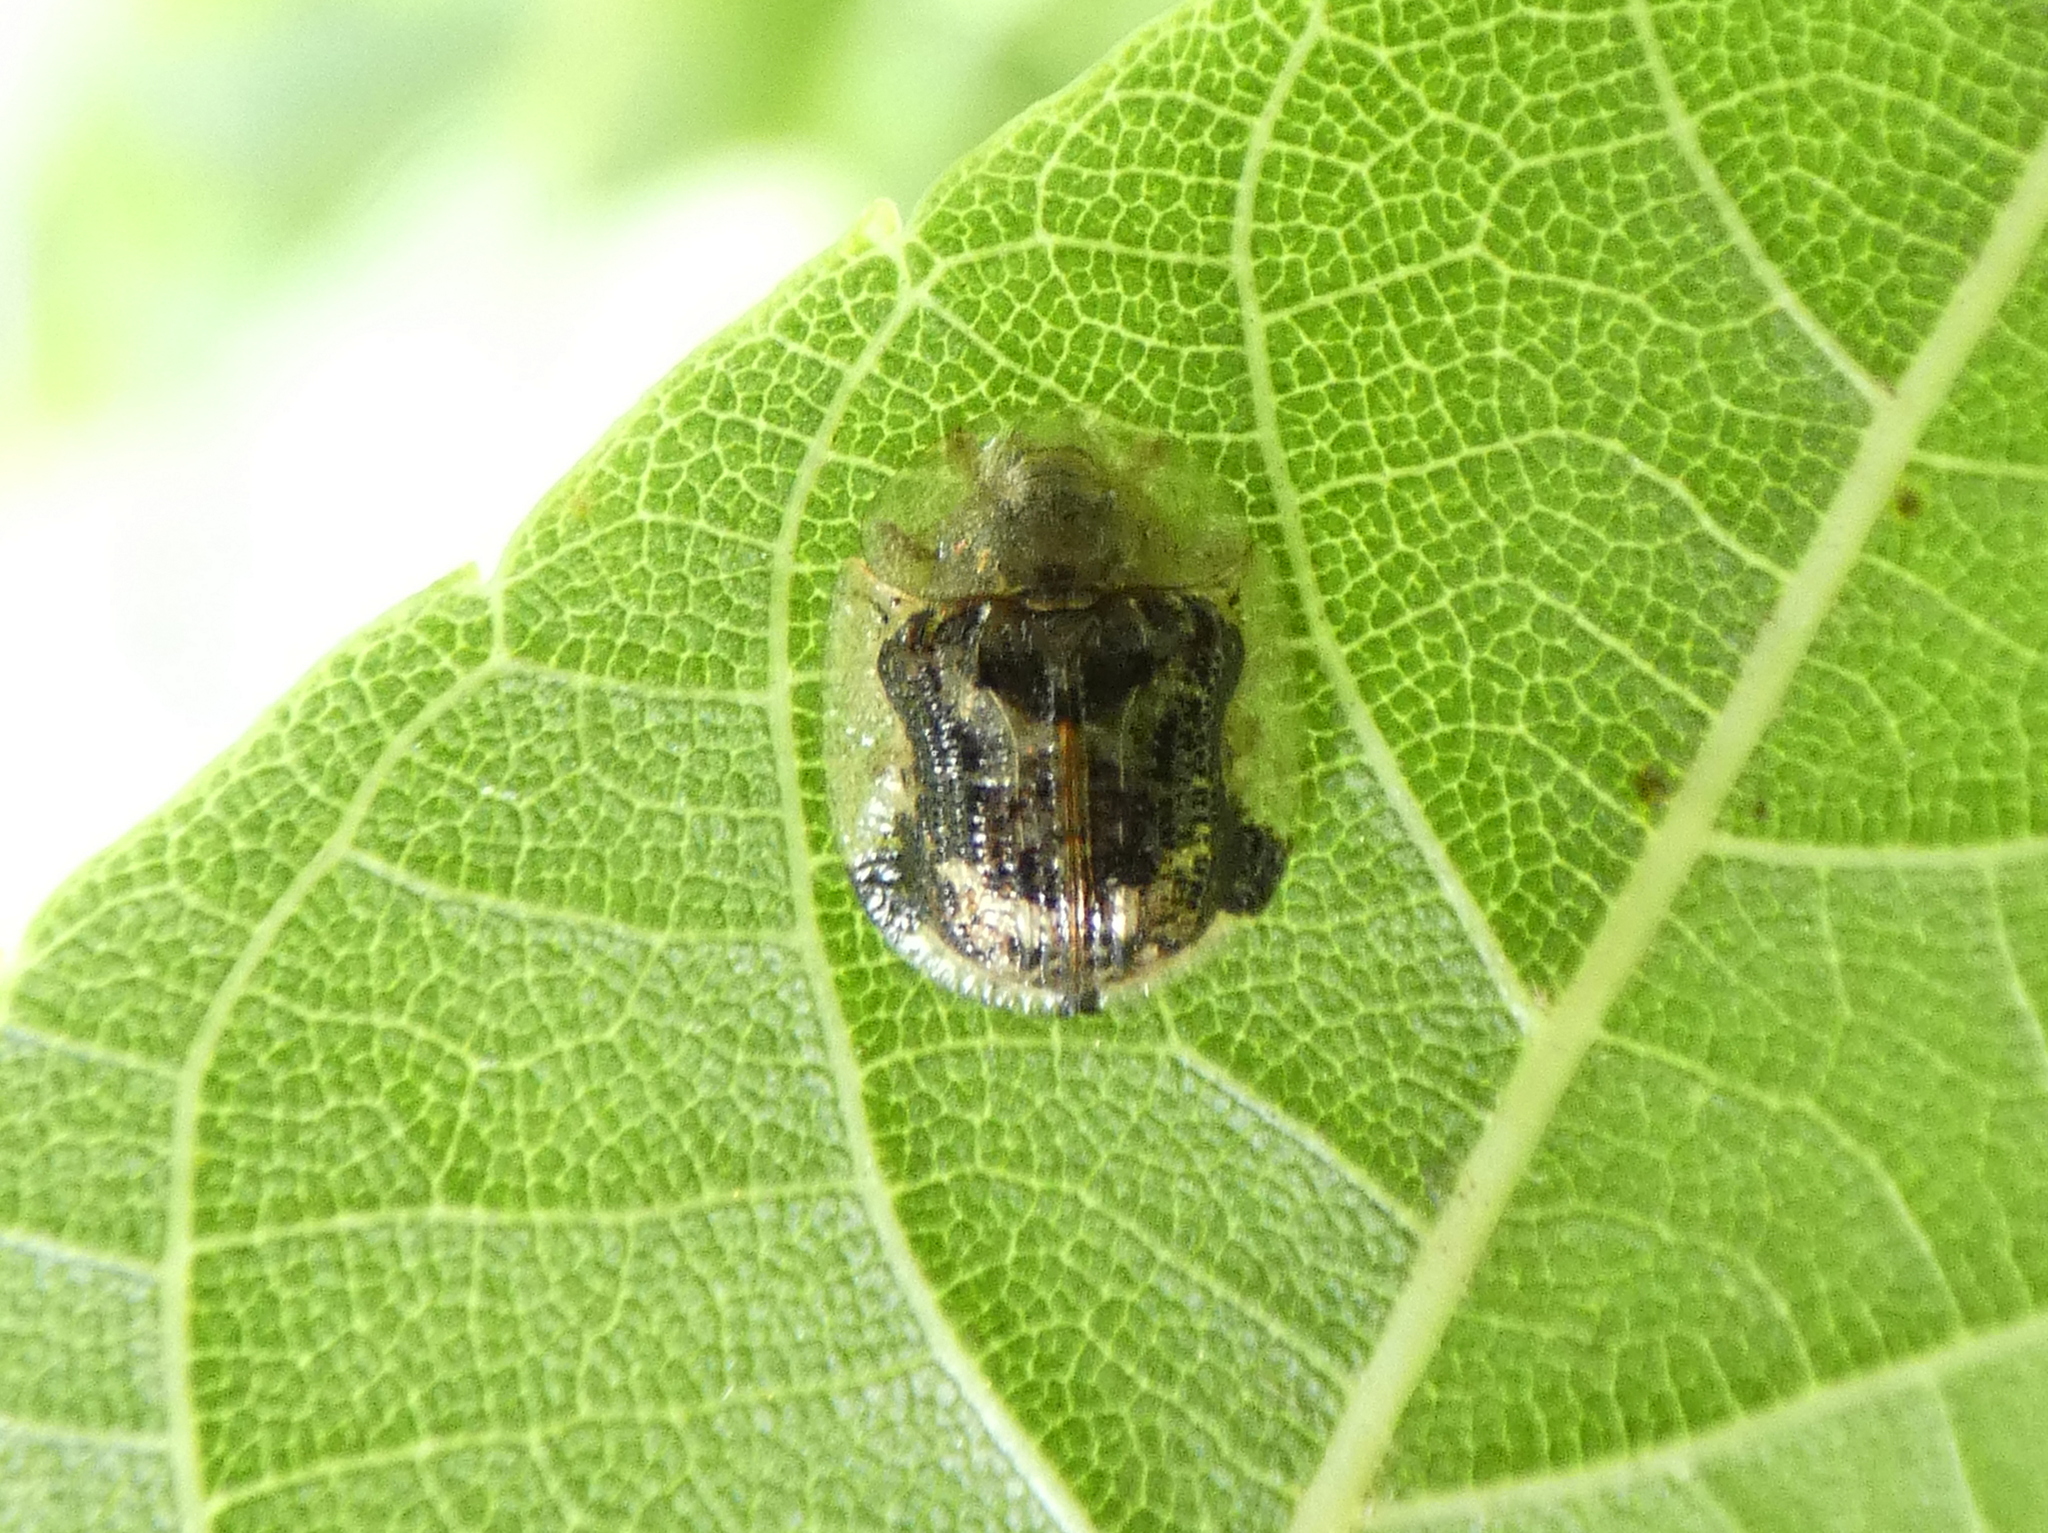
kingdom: Animalia
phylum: Arthropoda
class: Insecta
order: Coleoptera
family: Chrysomelidae
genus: Cassida
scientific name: Cassida piperata
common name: Small tortoise beetle
